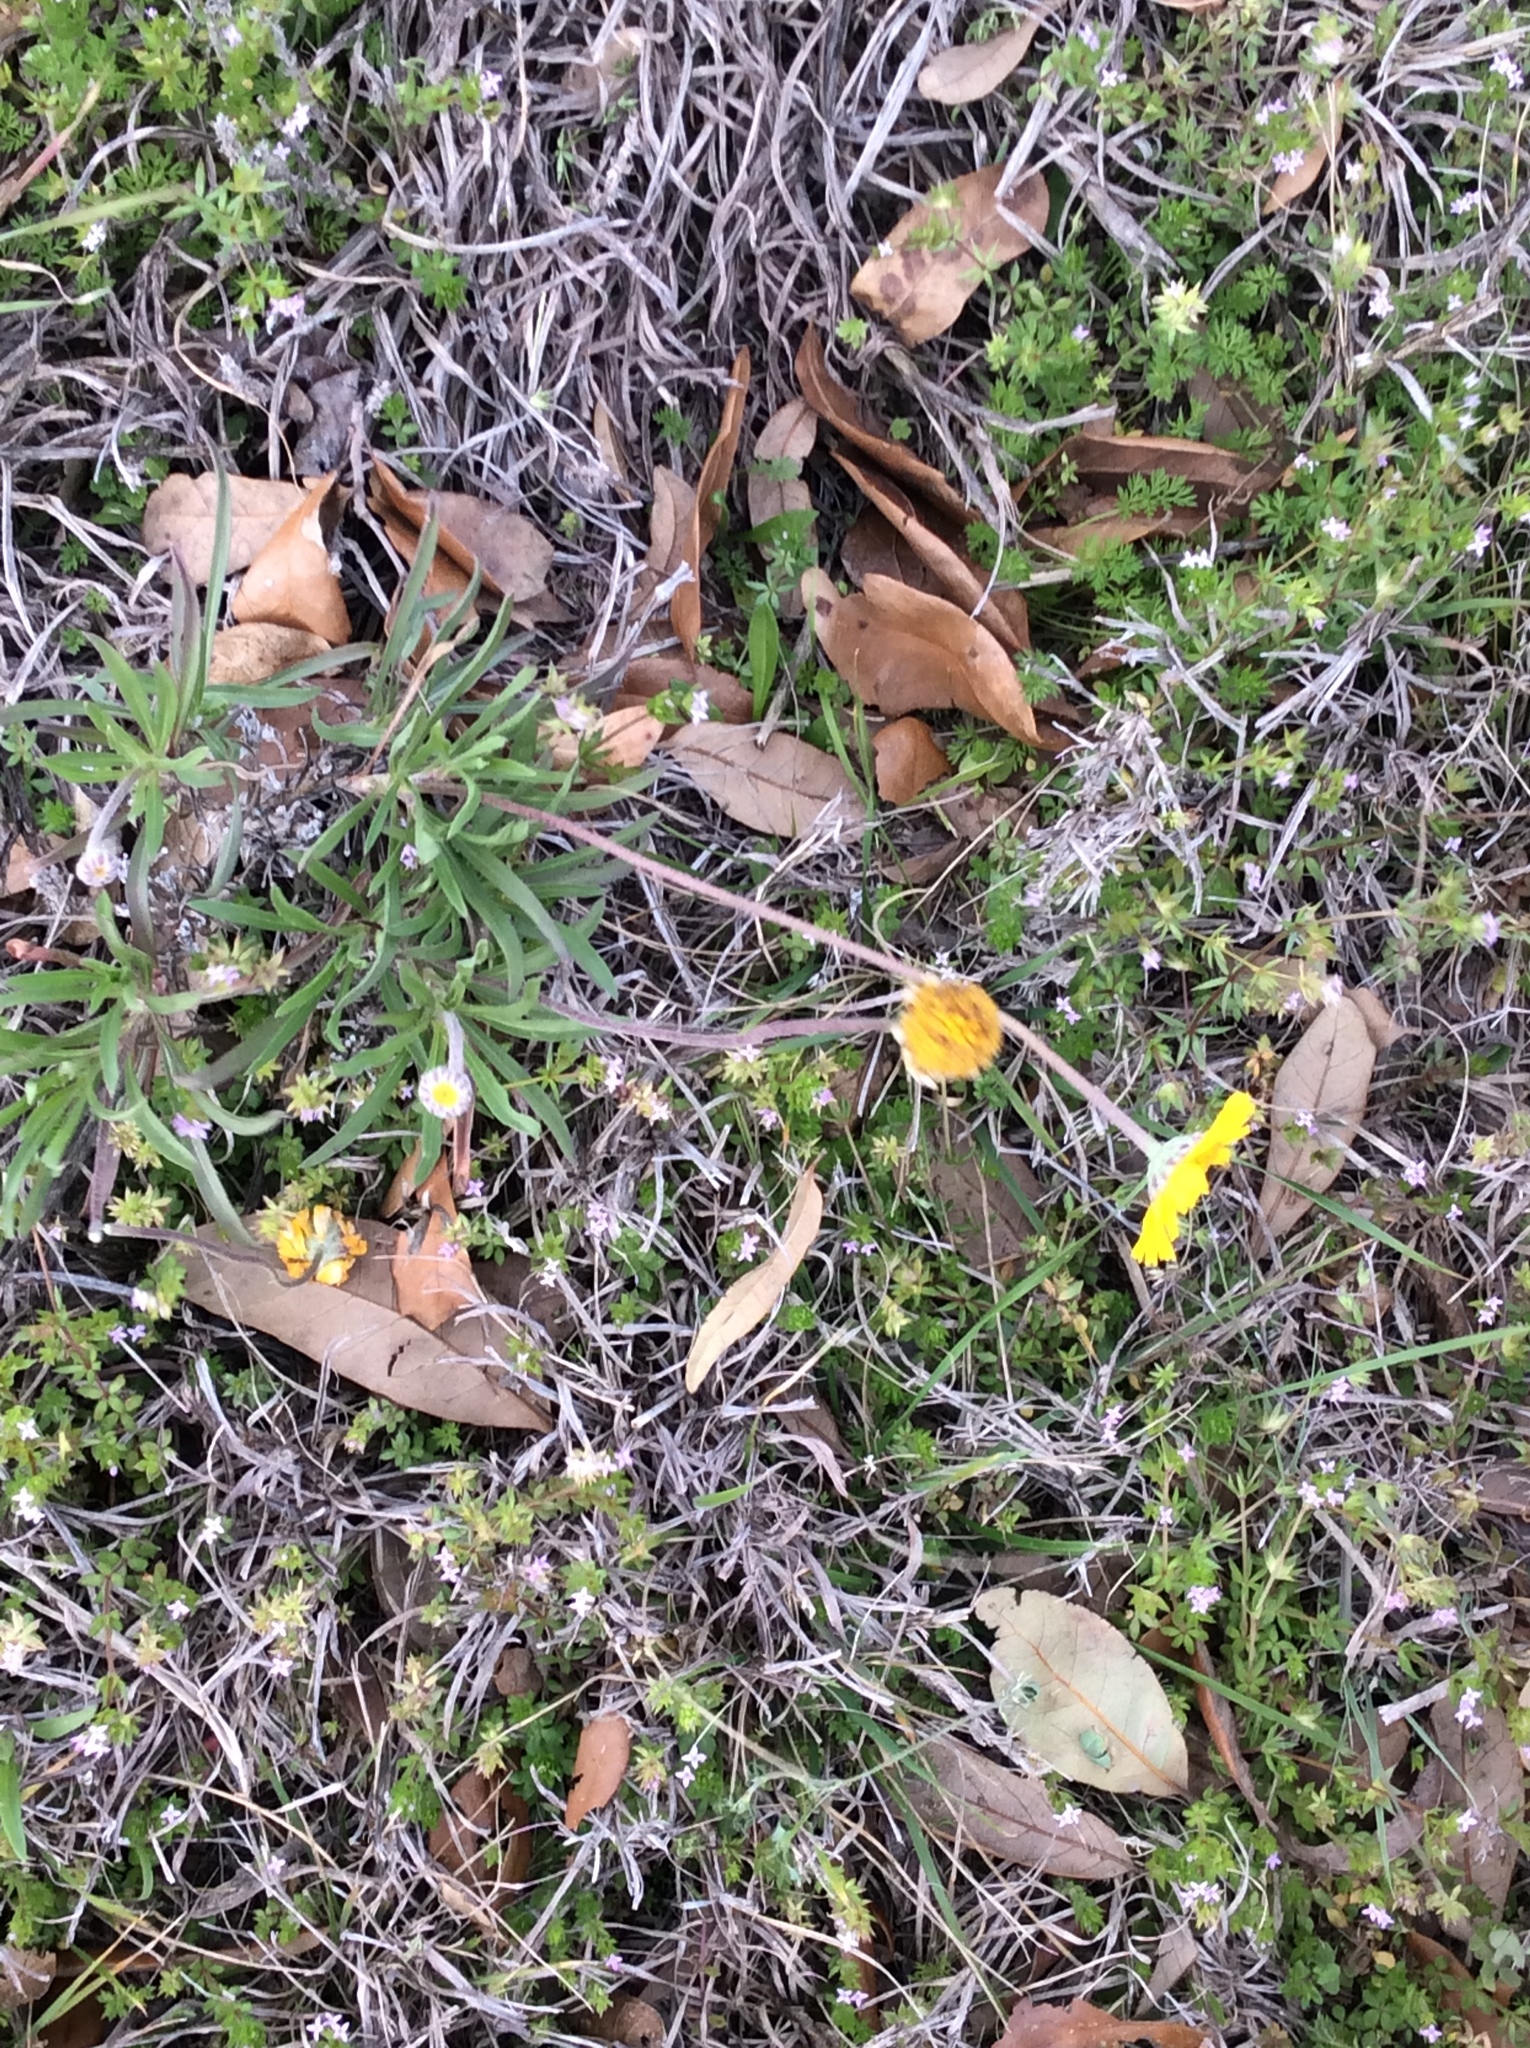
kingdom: Plantae
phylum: Tracheophyta
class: Magnoliopsida
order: Asterales
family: Asteraceae
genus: Tetraneuris
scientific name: Tetraneuris scaposa
